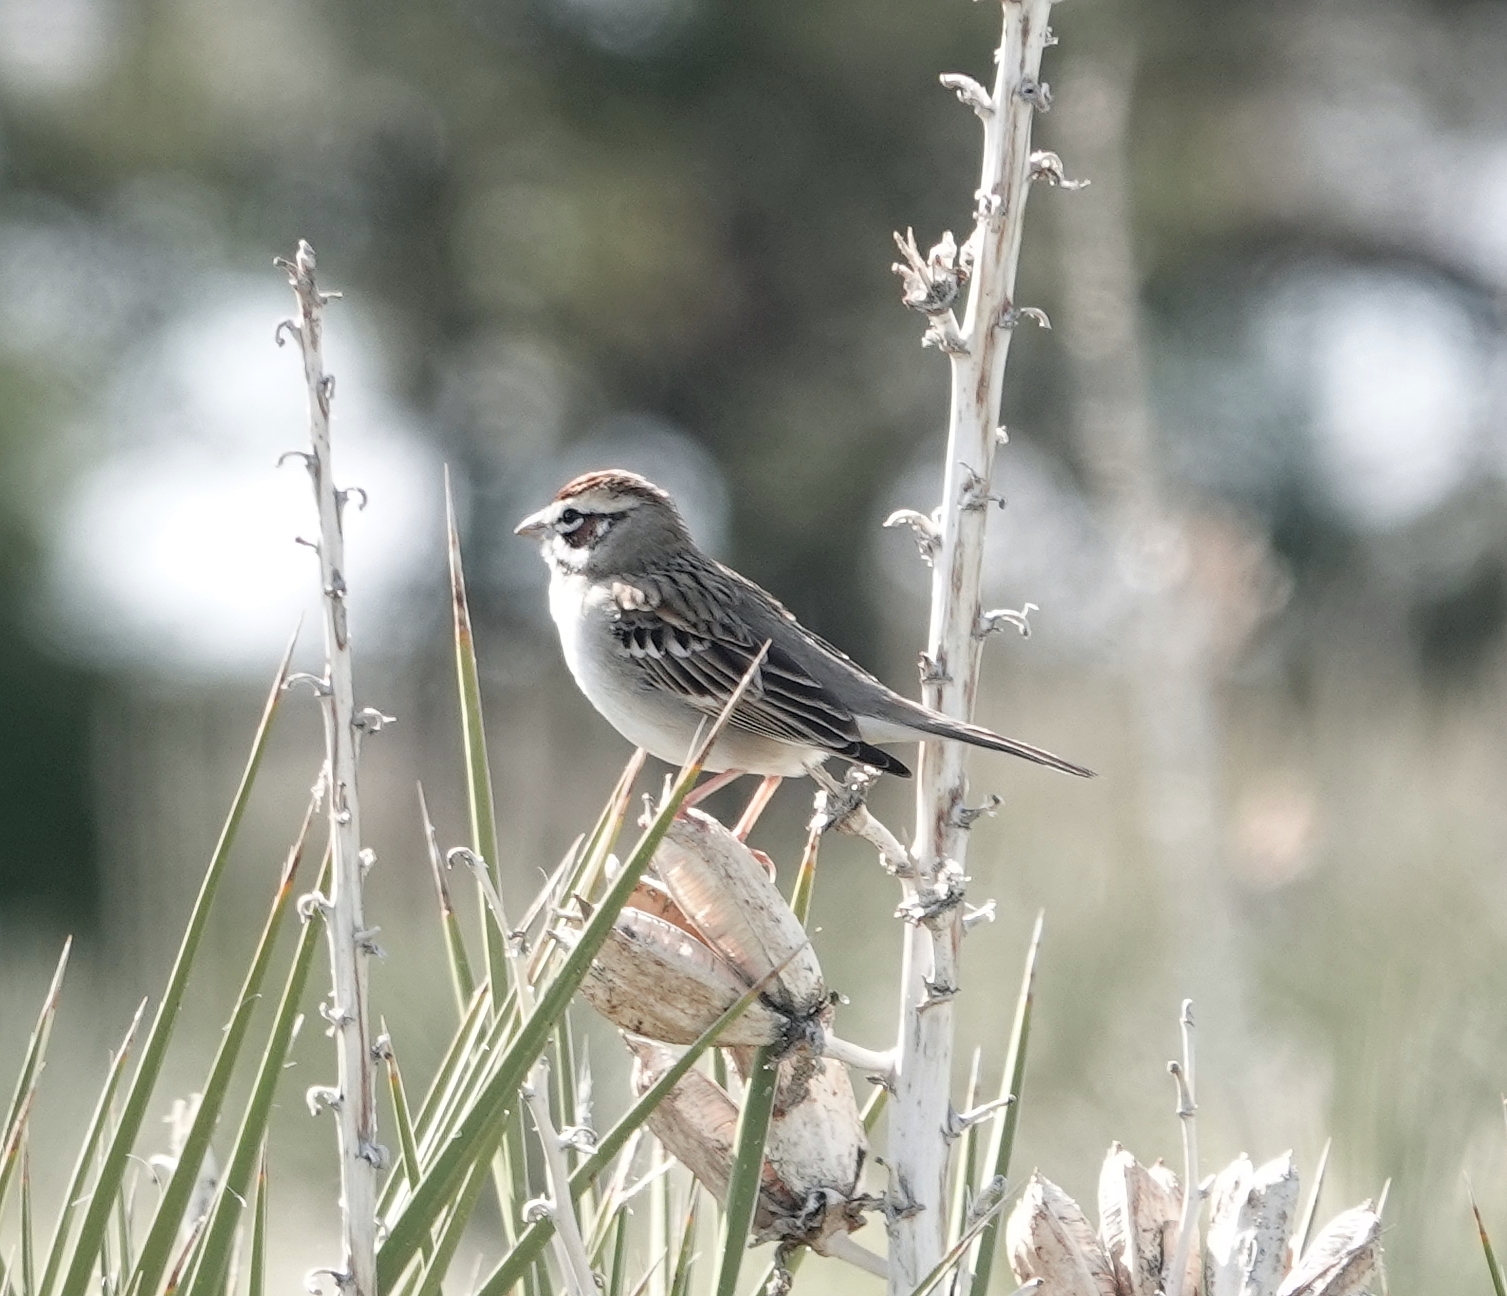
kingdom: Animalia
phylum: Chordata
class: Aves
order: Passeriformes
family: Passerellidae
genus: Chondestes
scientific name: Chondestes grammacus
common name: Lark sparrow
